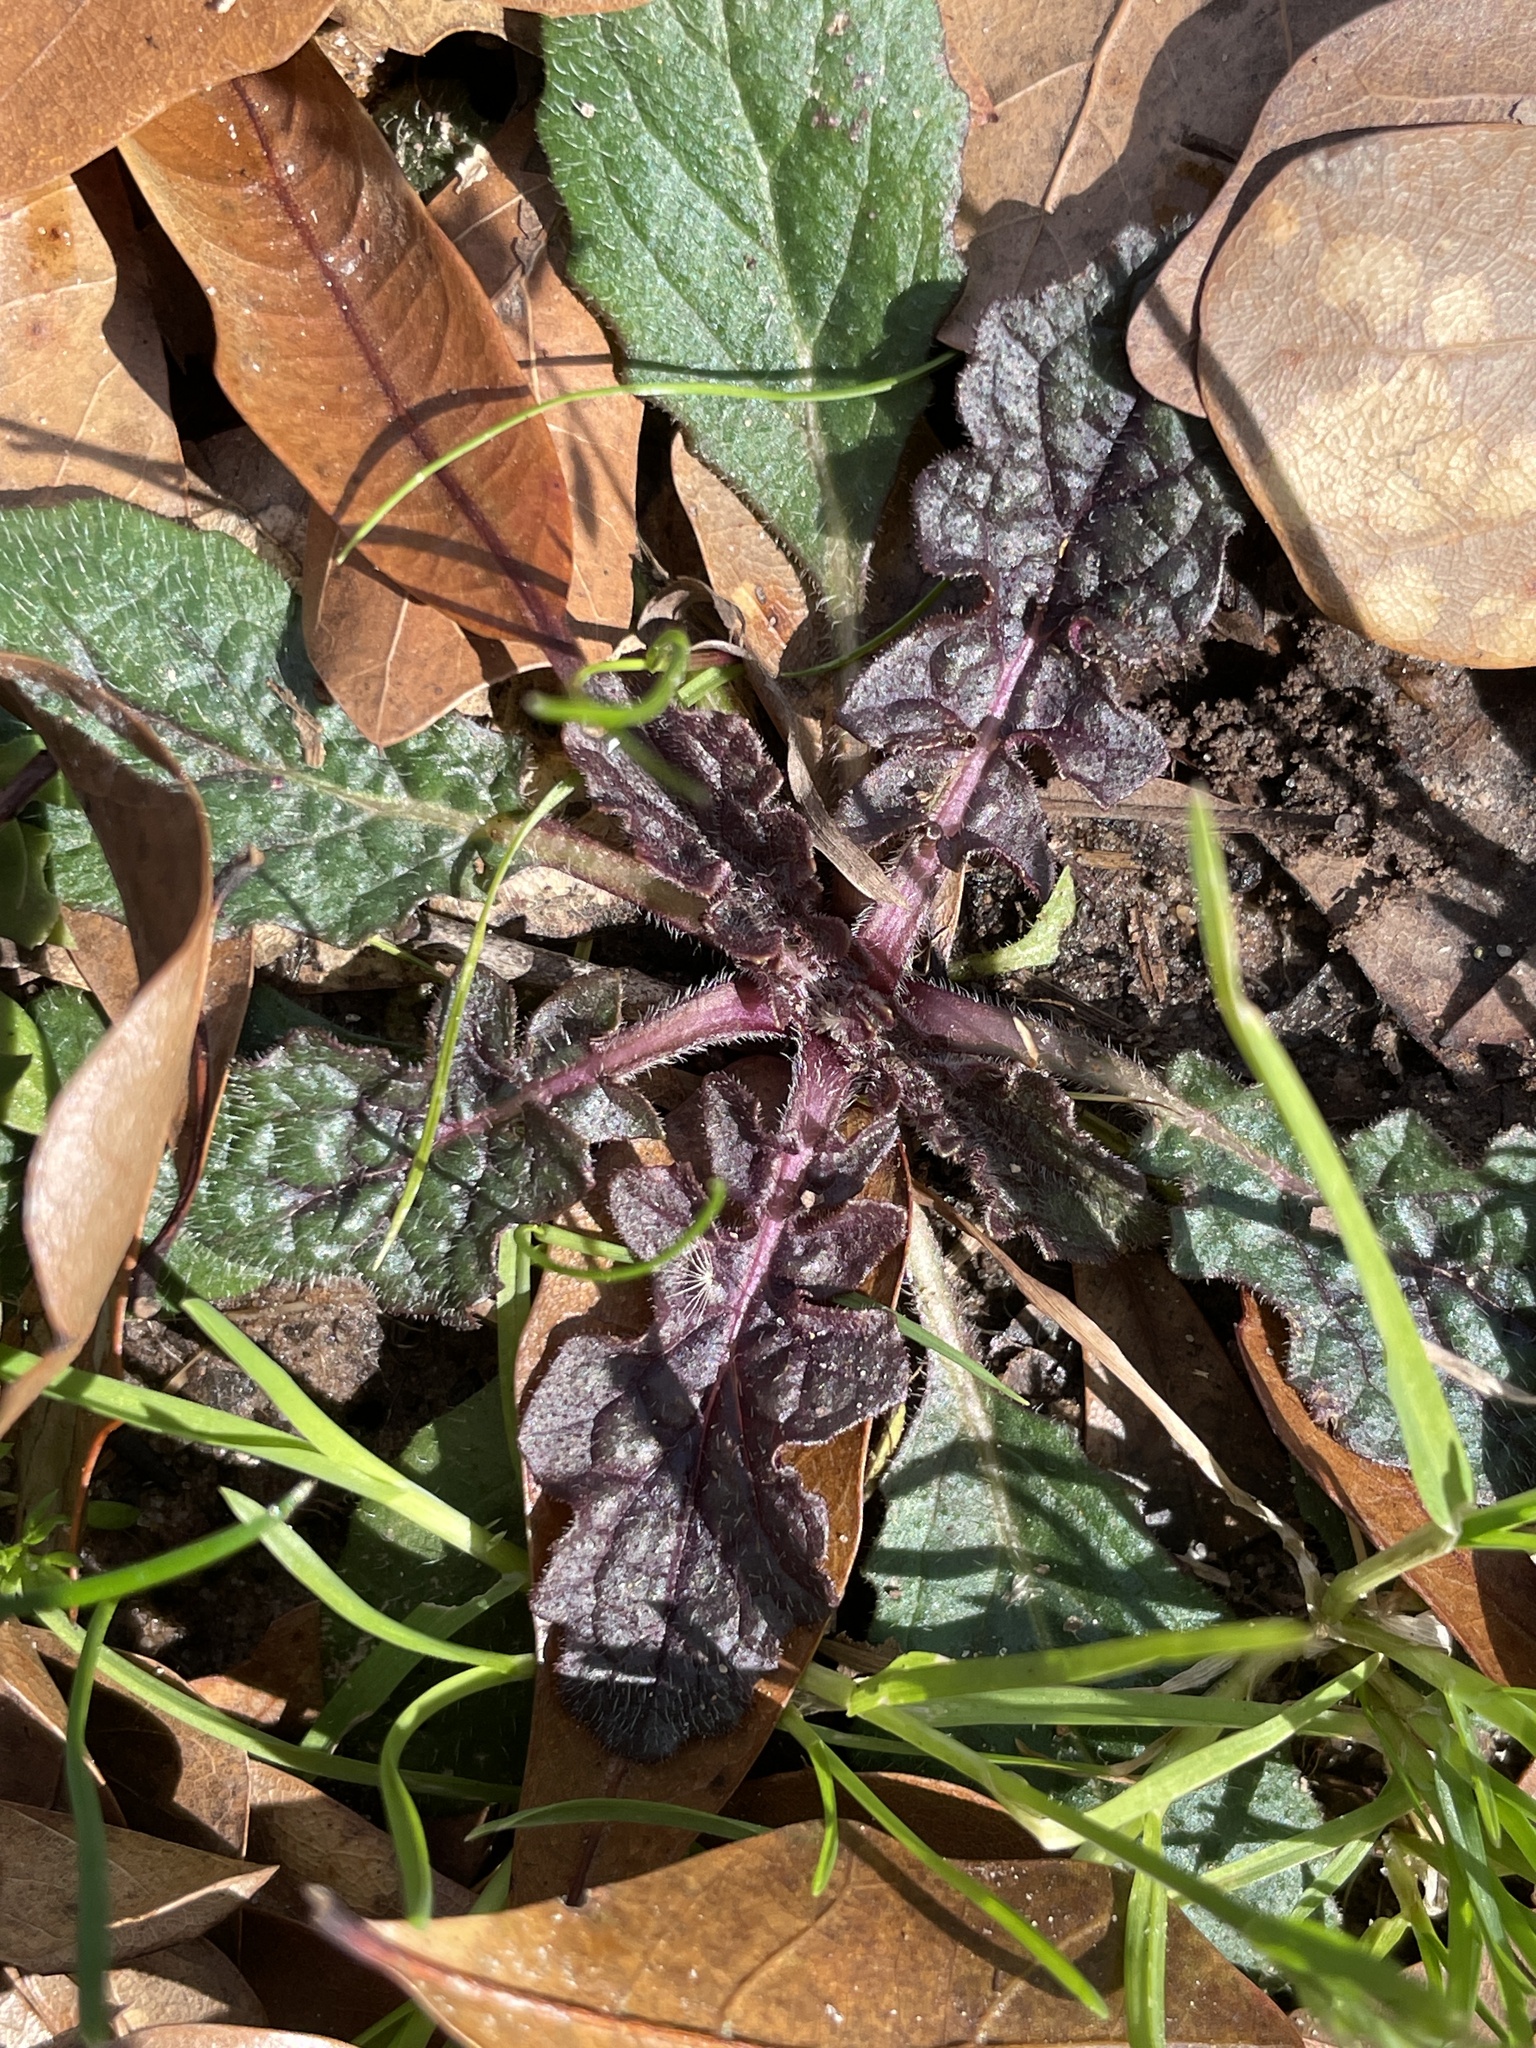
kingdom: Plantae
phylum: Tracheophyta
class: Magnoliopsida
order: Lamiales
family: Lamiaceae
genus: Salvia
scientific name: Salvia lyrata
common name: Cancerweed
